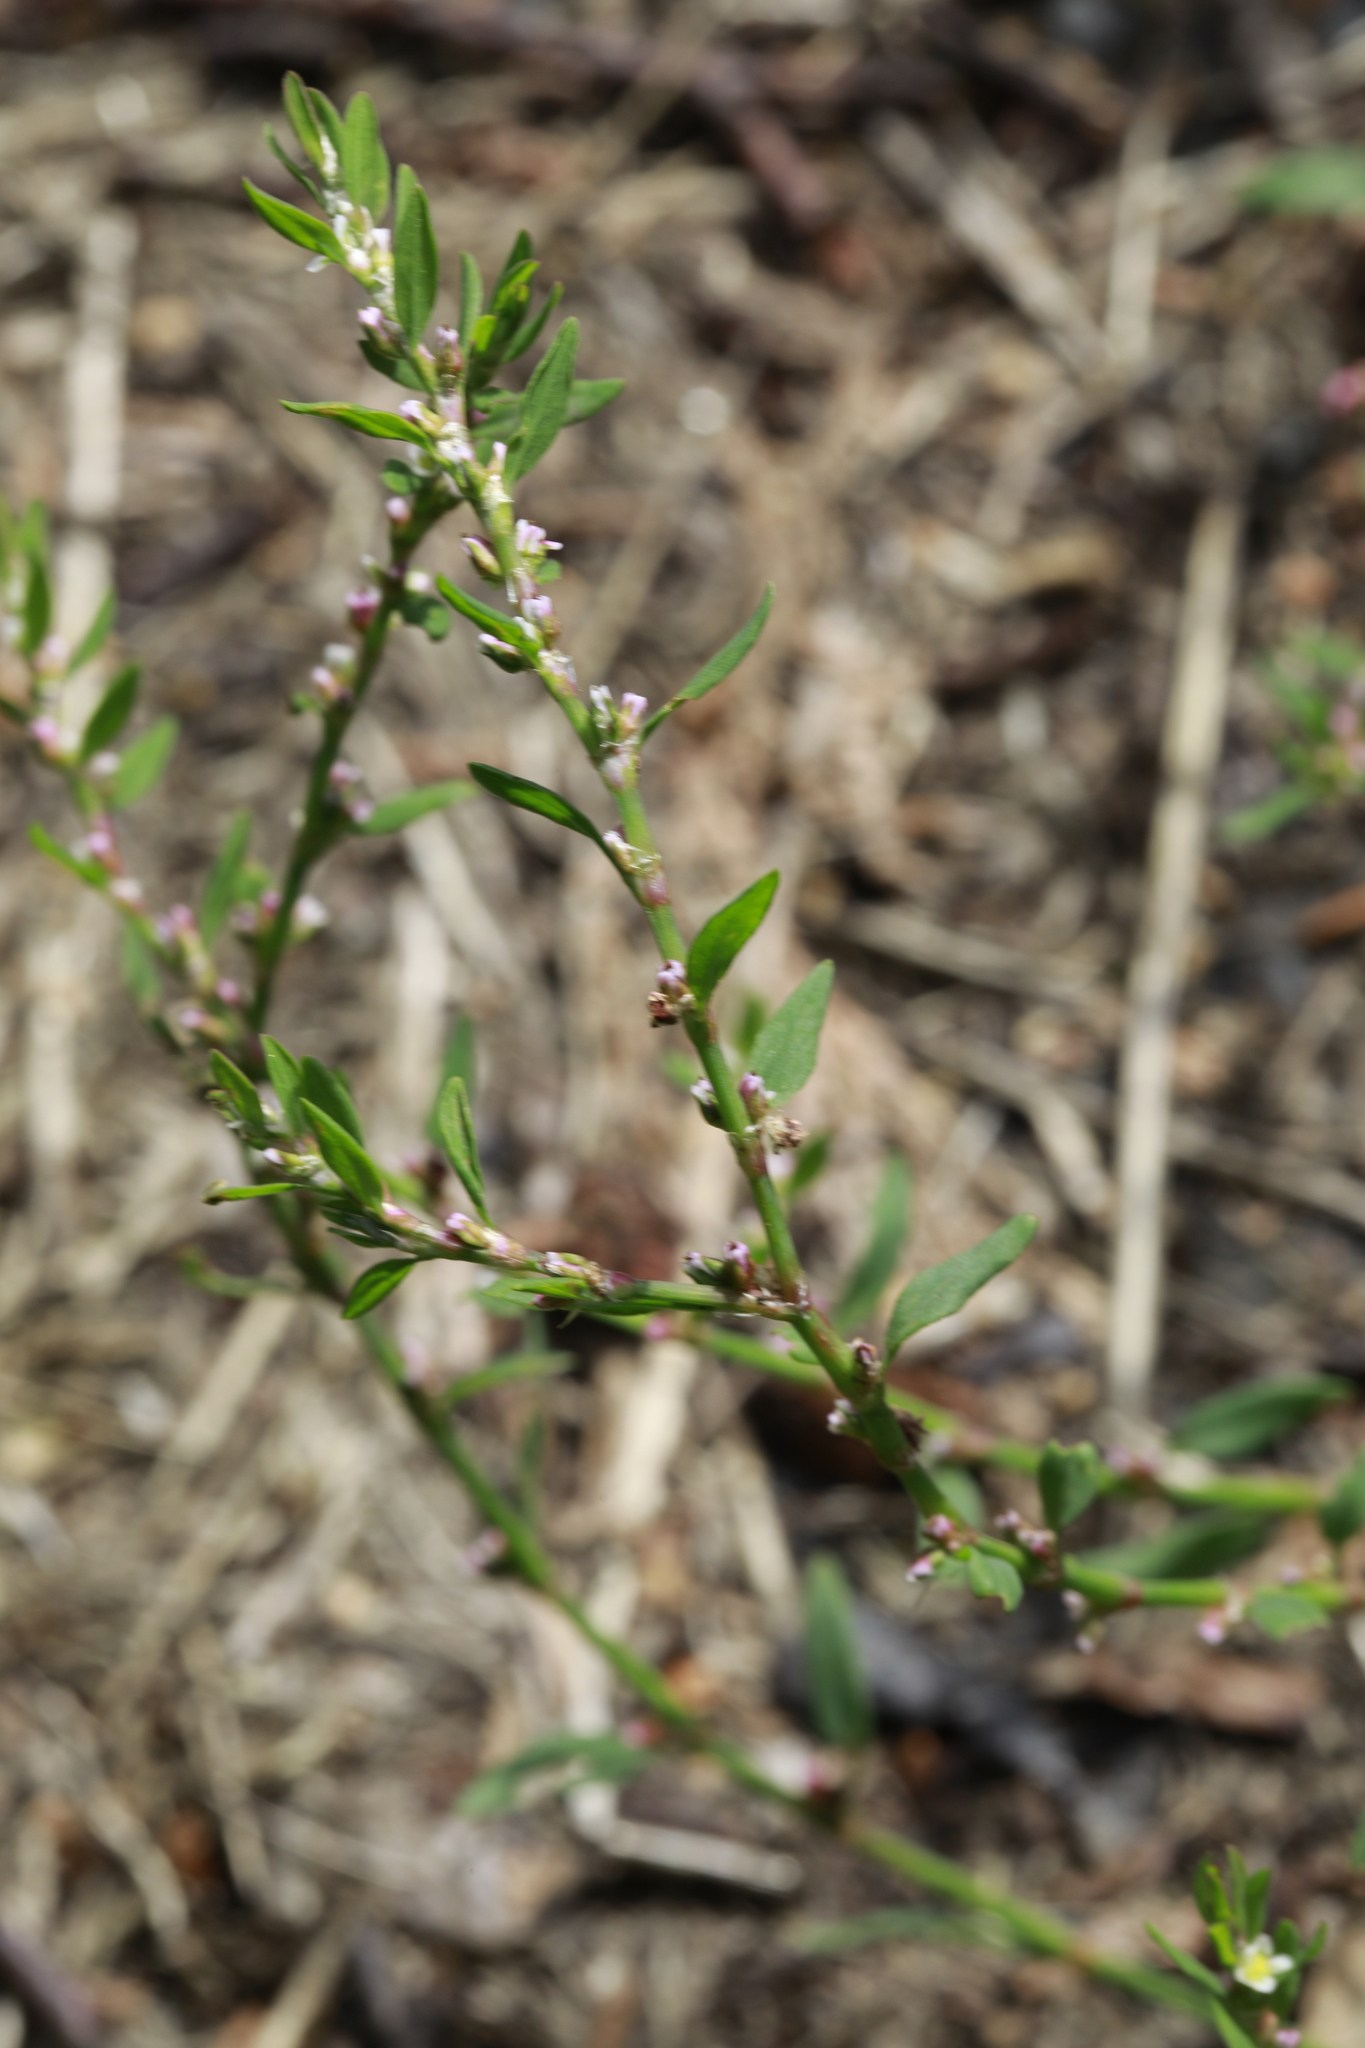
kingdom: Plantae
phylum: Tracheophyta
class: Magnoliopsida
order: Caryophyllales
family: Polygonaceae
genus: Polygonum
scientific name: Polygonum aviculare
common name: Prostrate knotweed
